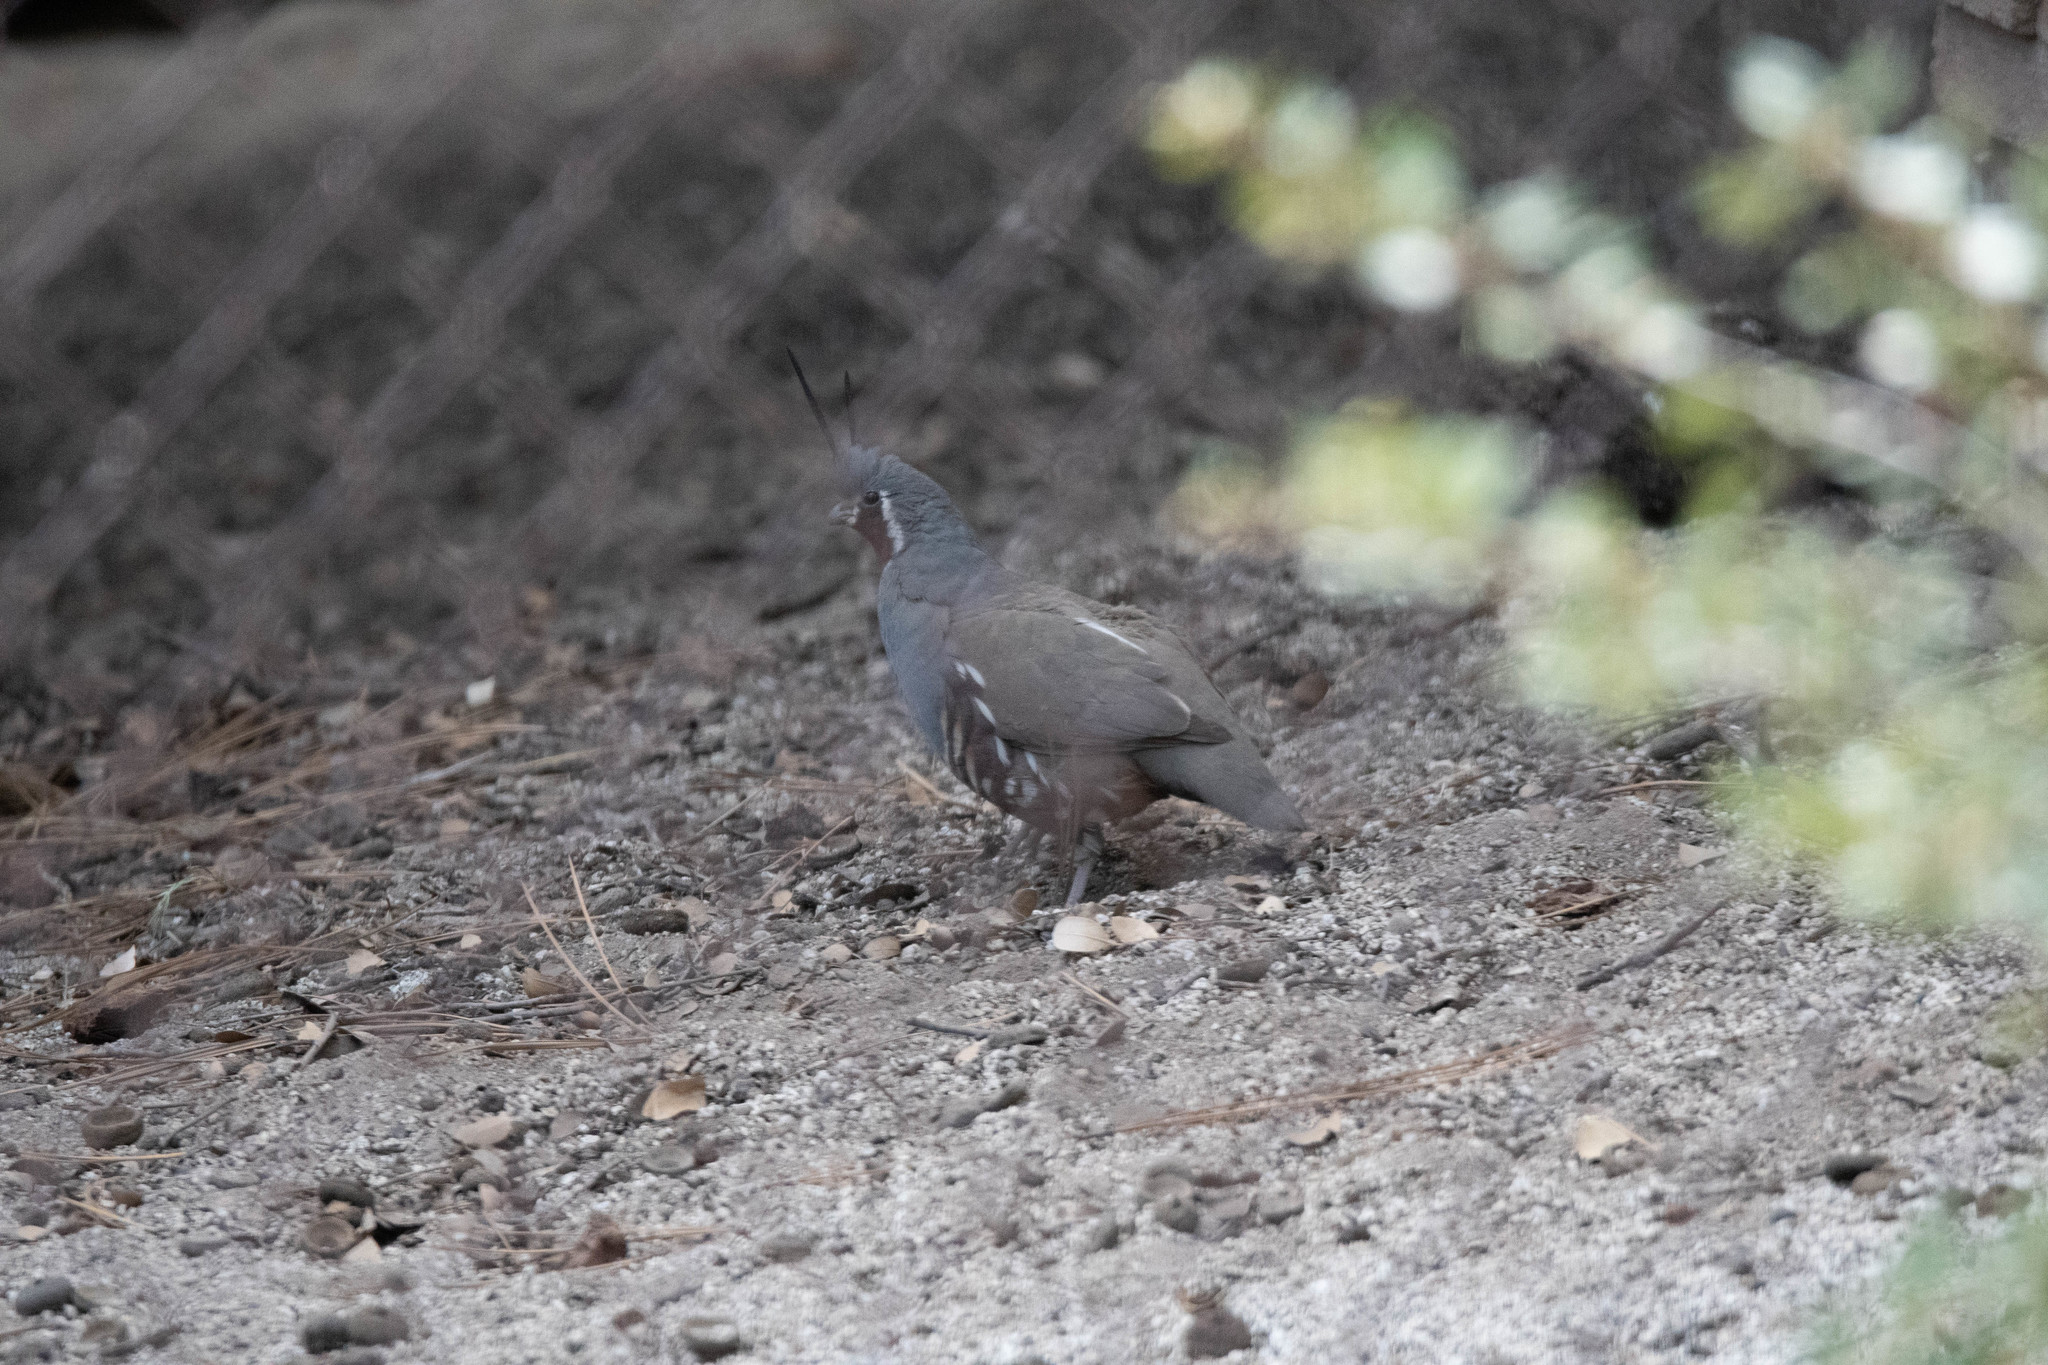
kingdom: Animalia
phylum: Chordata
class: Aves
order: Galliformes
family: Odontophoridae
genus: Oreortyx
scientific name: Oreortyx pictus
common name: Mountain quail
